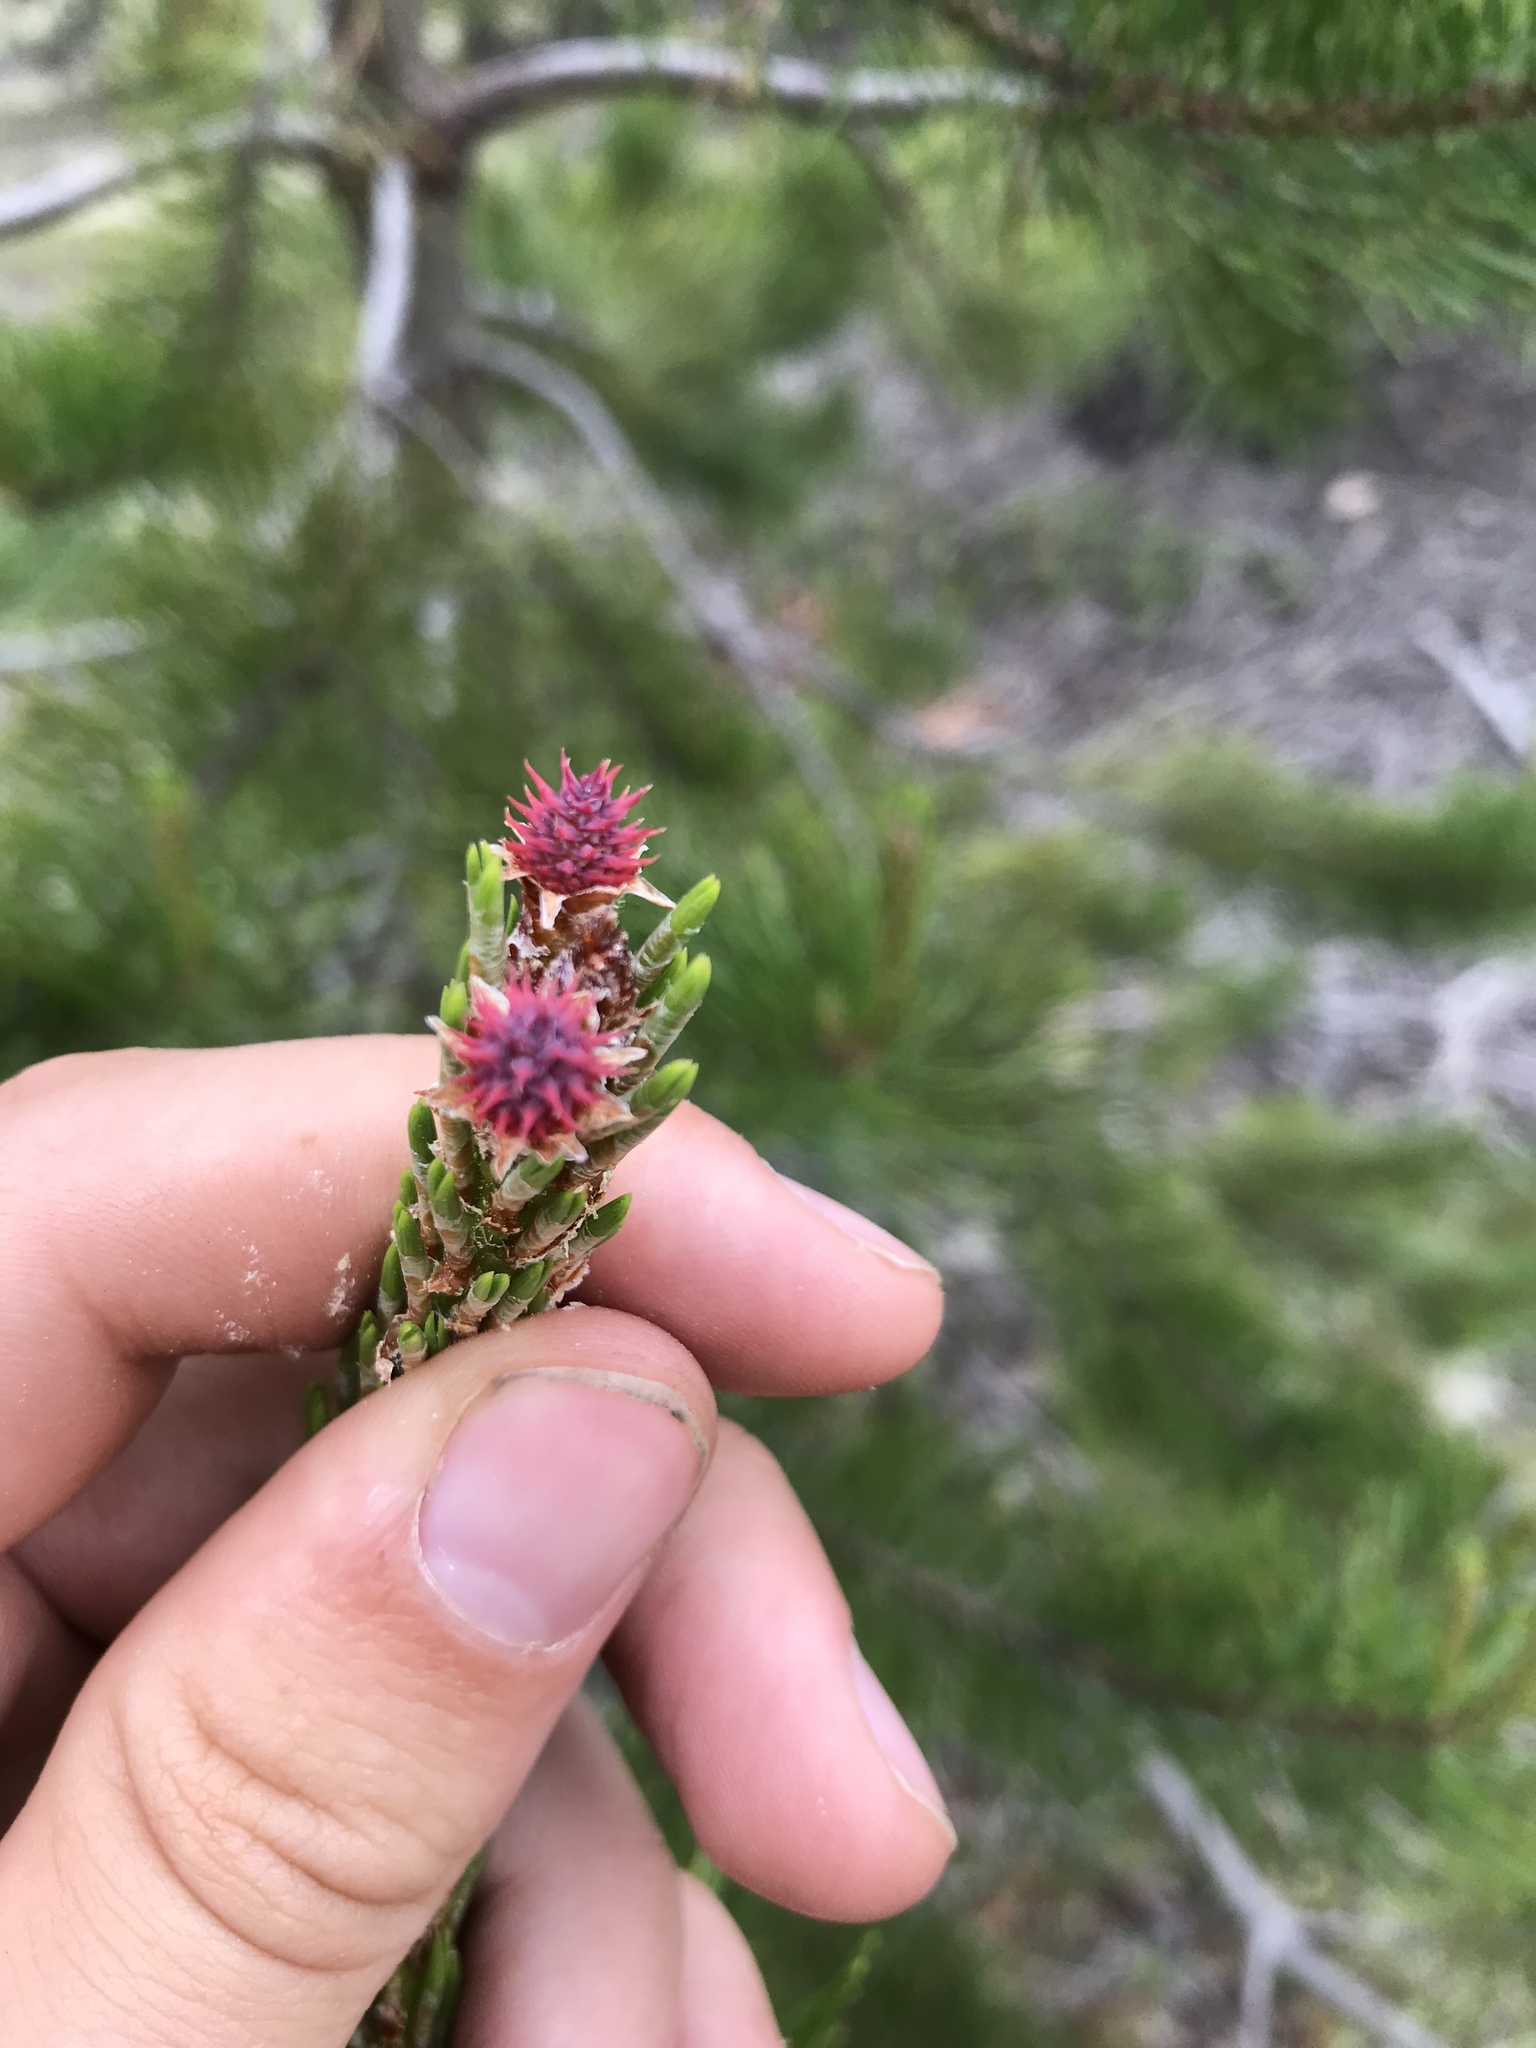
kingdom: Plantae
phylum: Tracheophyta
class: Pinopsida
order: Pinales
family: Pinaceae
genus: Pinus
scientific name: Pinus contorta
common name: Lodgepole pine
